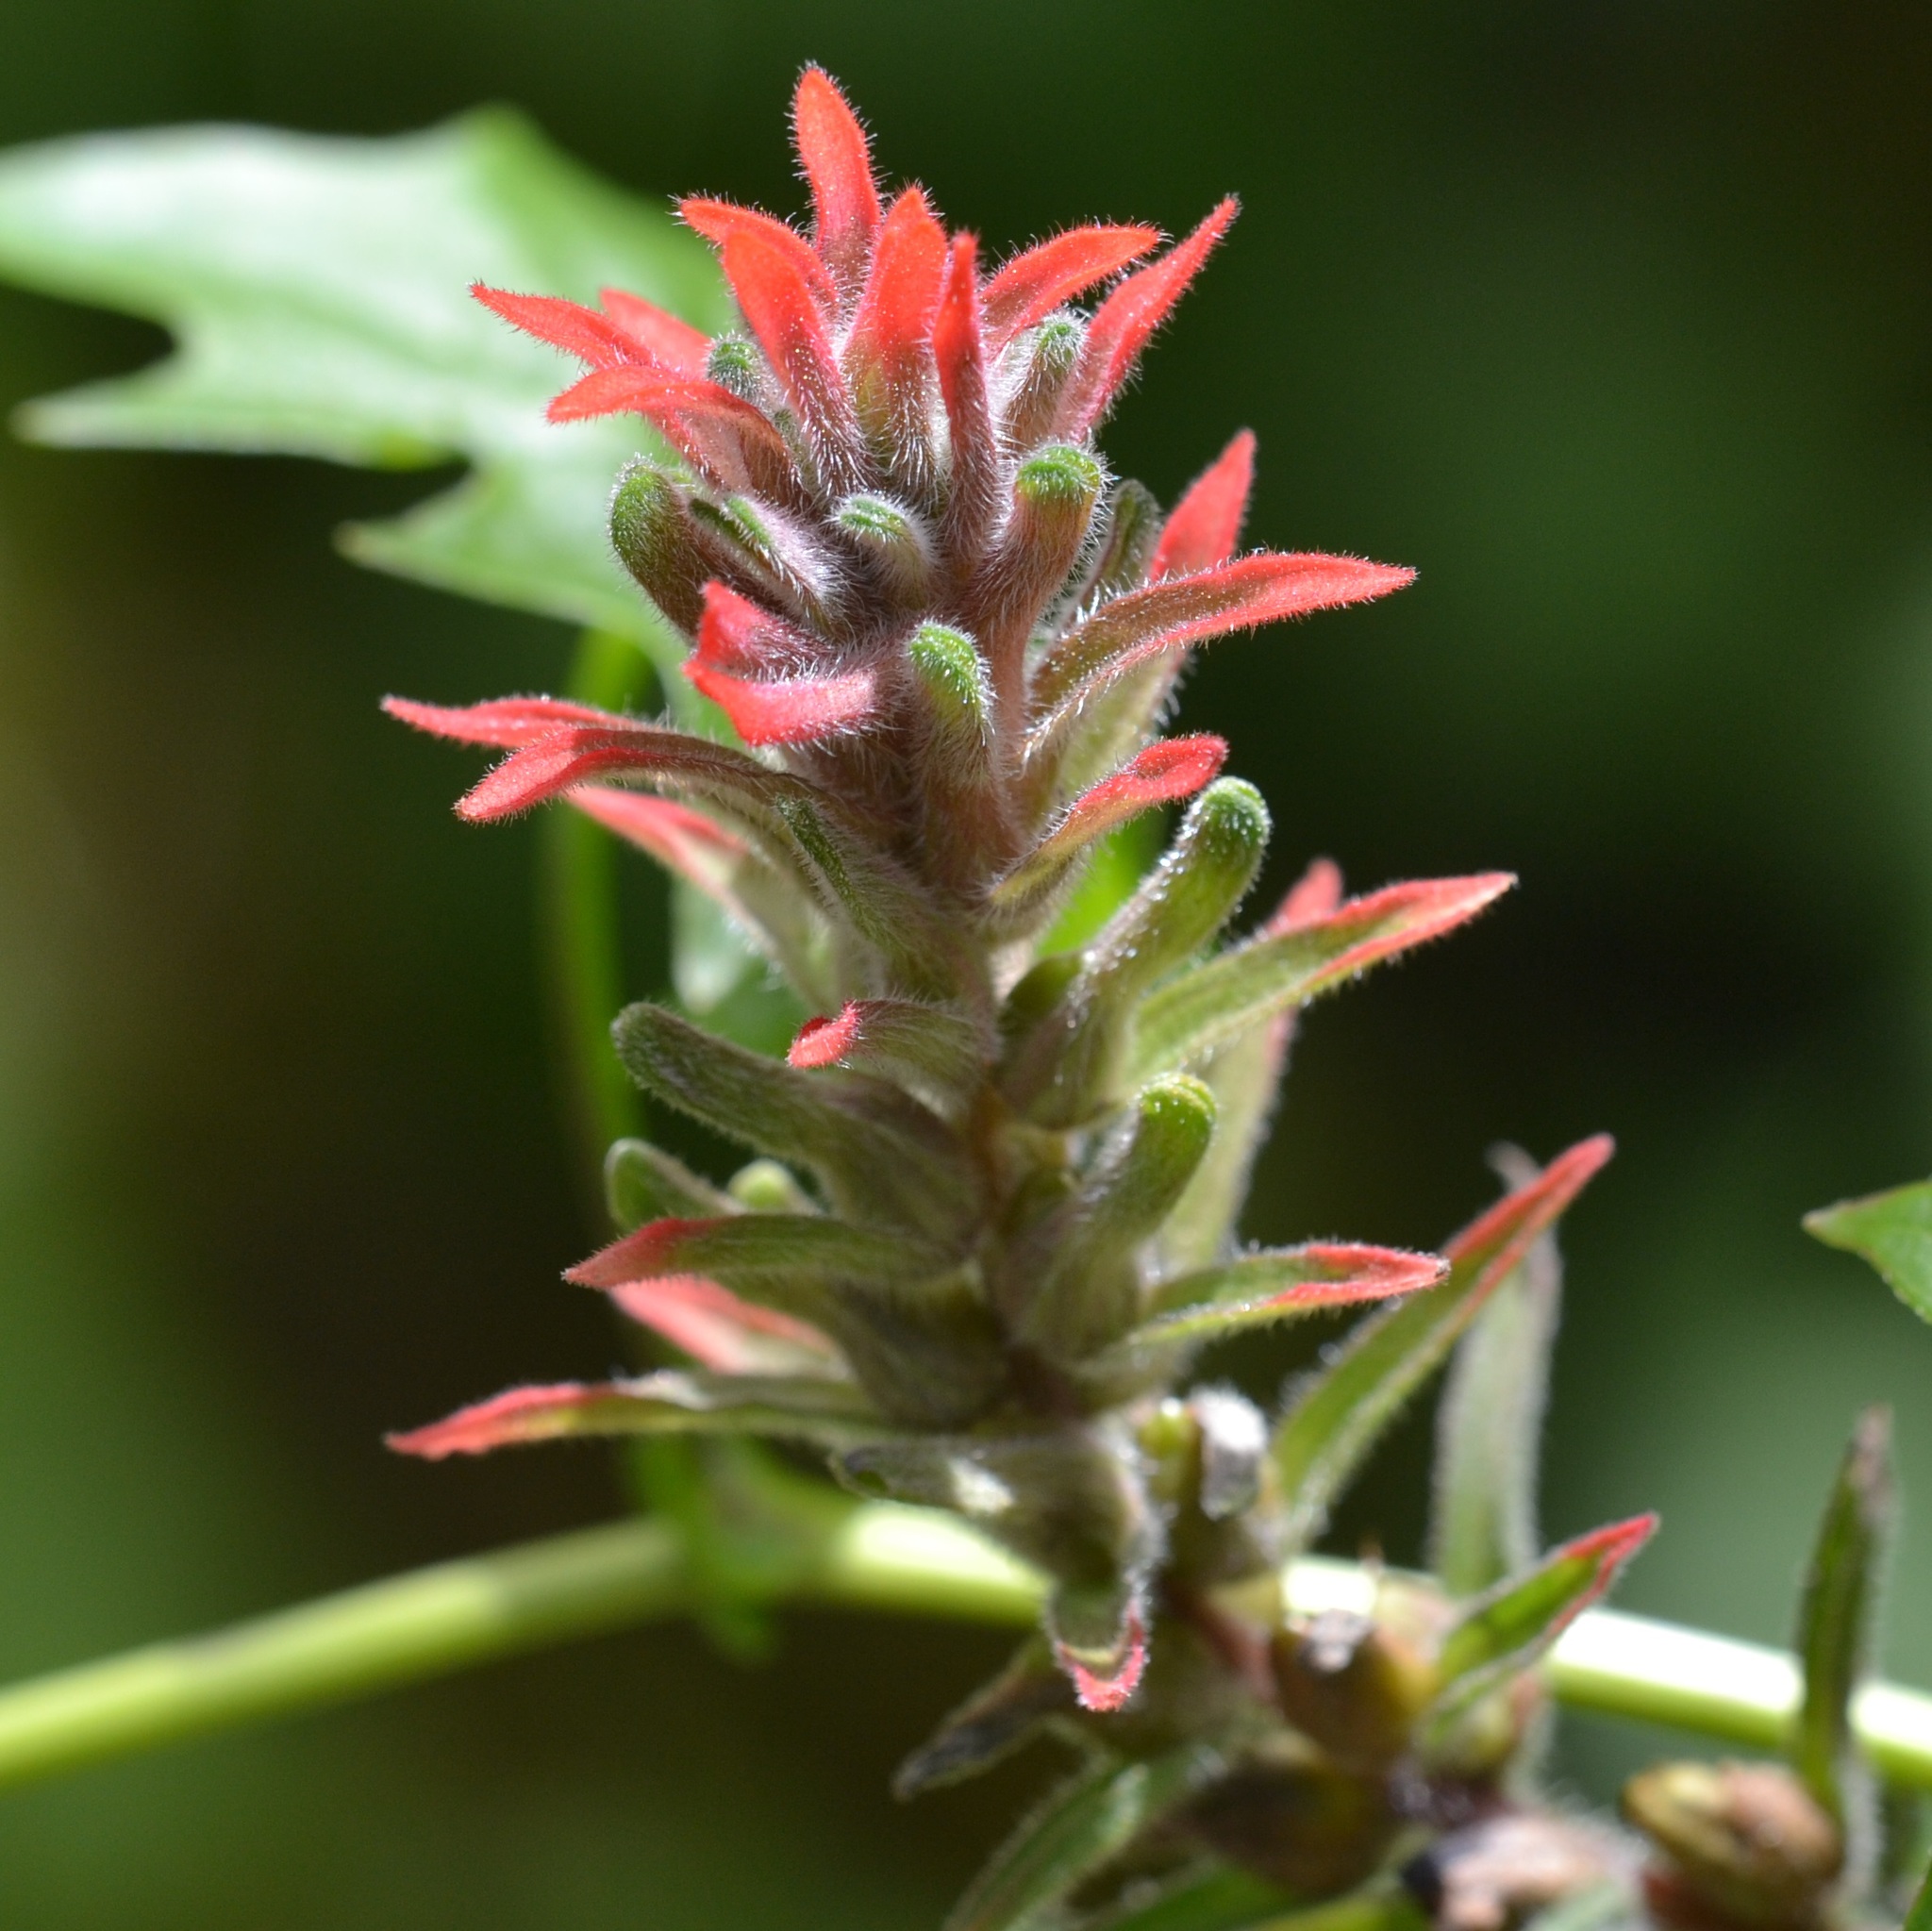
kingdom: Plantae
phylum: Tracheophyta
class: Magnoliopsida
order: Lamiales
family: Orobanchaceae
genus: Castilleja
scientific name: Castilleja arvensis
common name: Indian paintbrush
